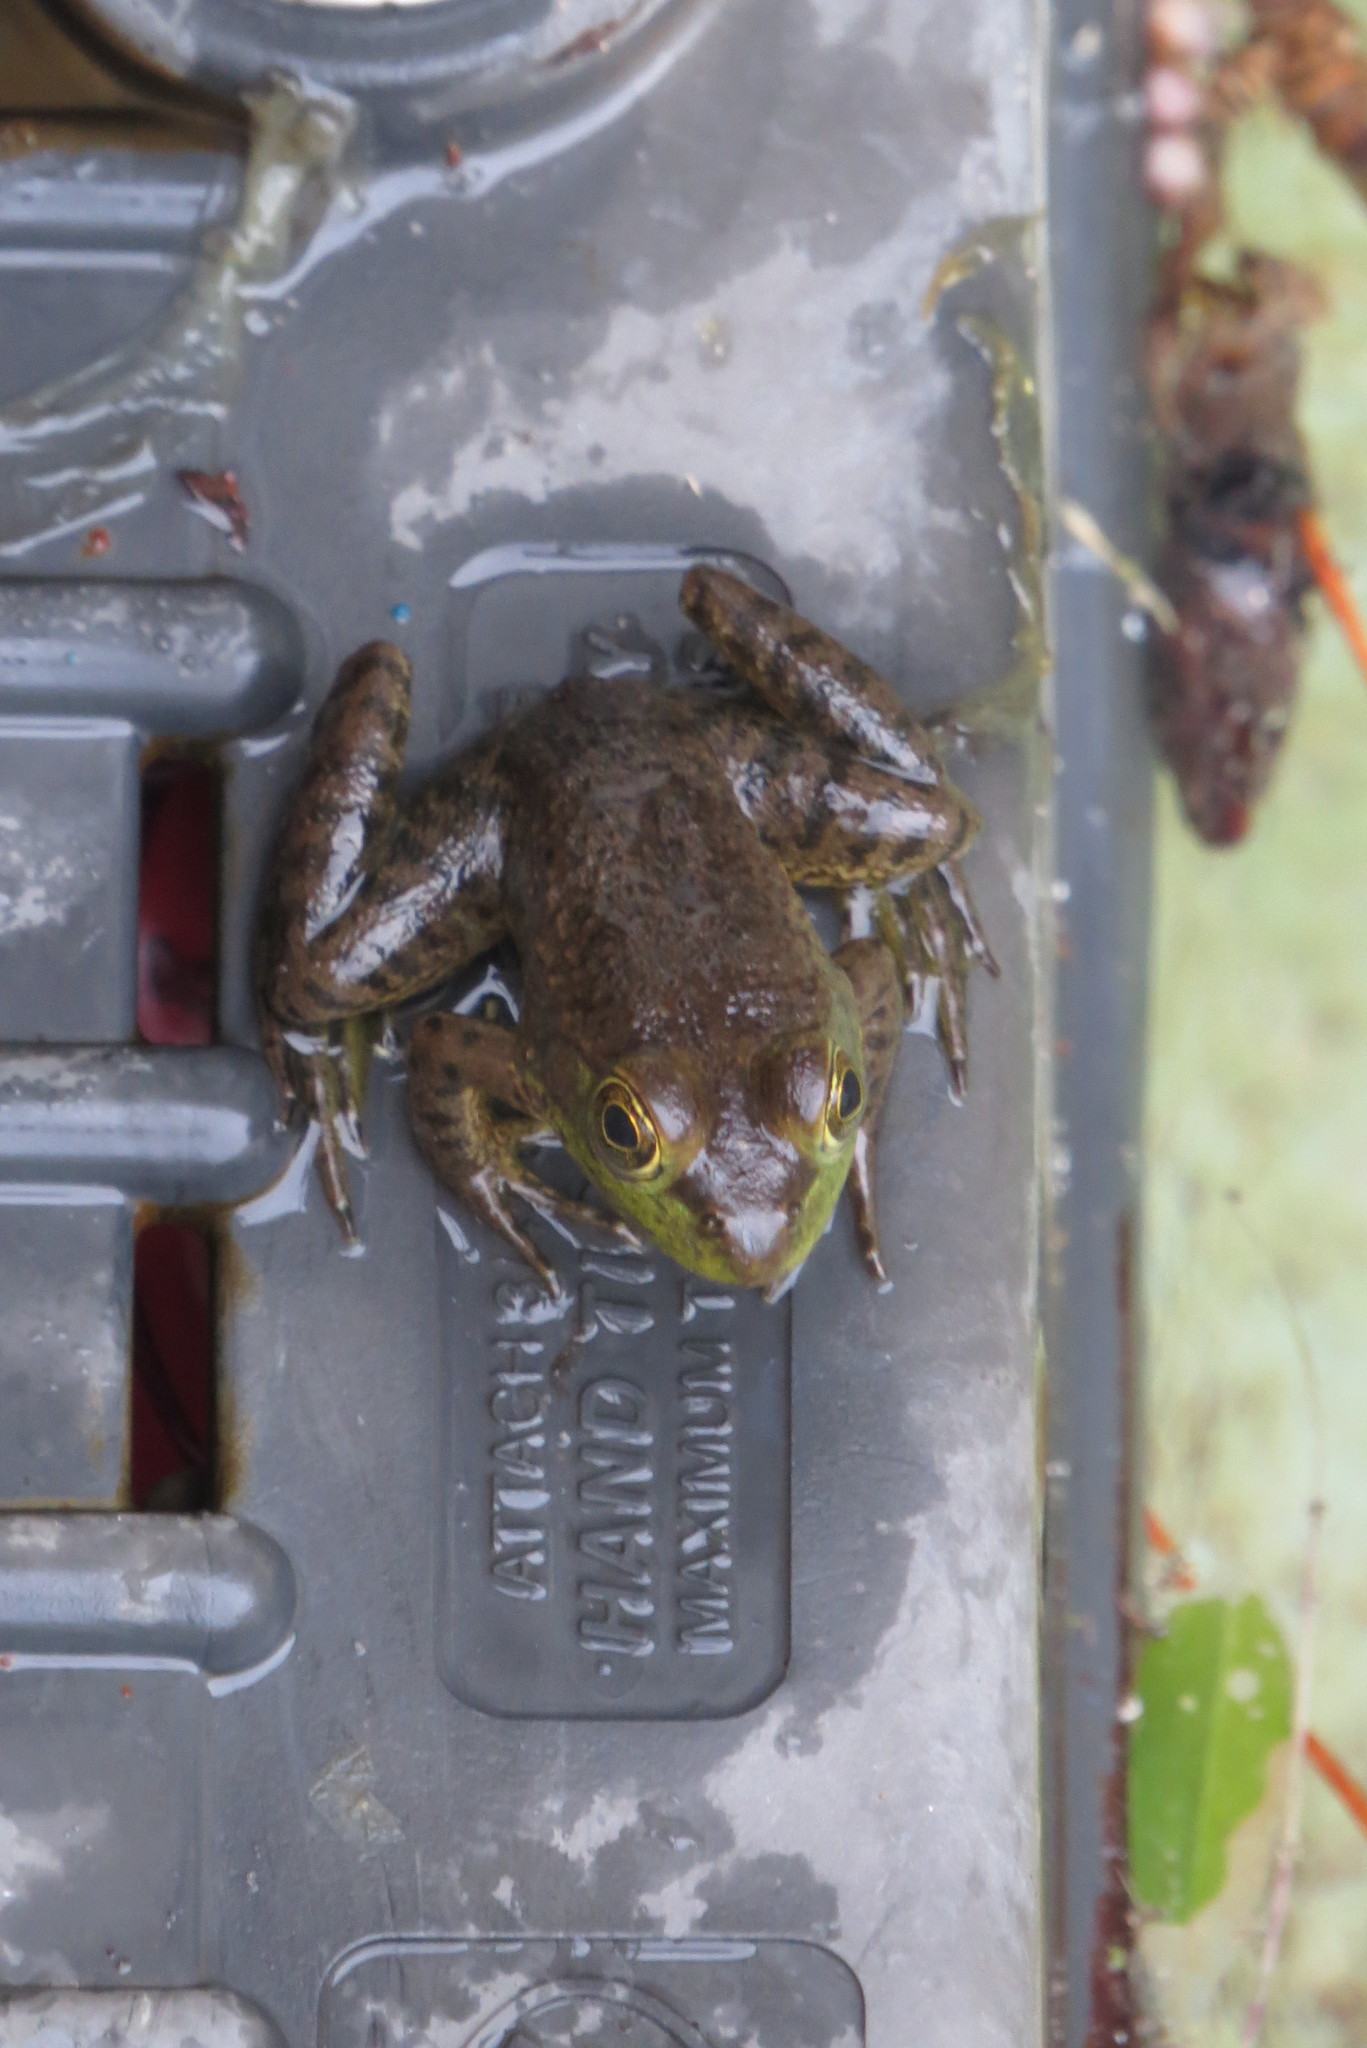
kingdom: Animalia
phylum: Chordata
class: Amphibia
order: Anura
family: Ranidae
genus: Lithobates
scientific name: Lithobates catesbeianus
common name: American bullfrog
